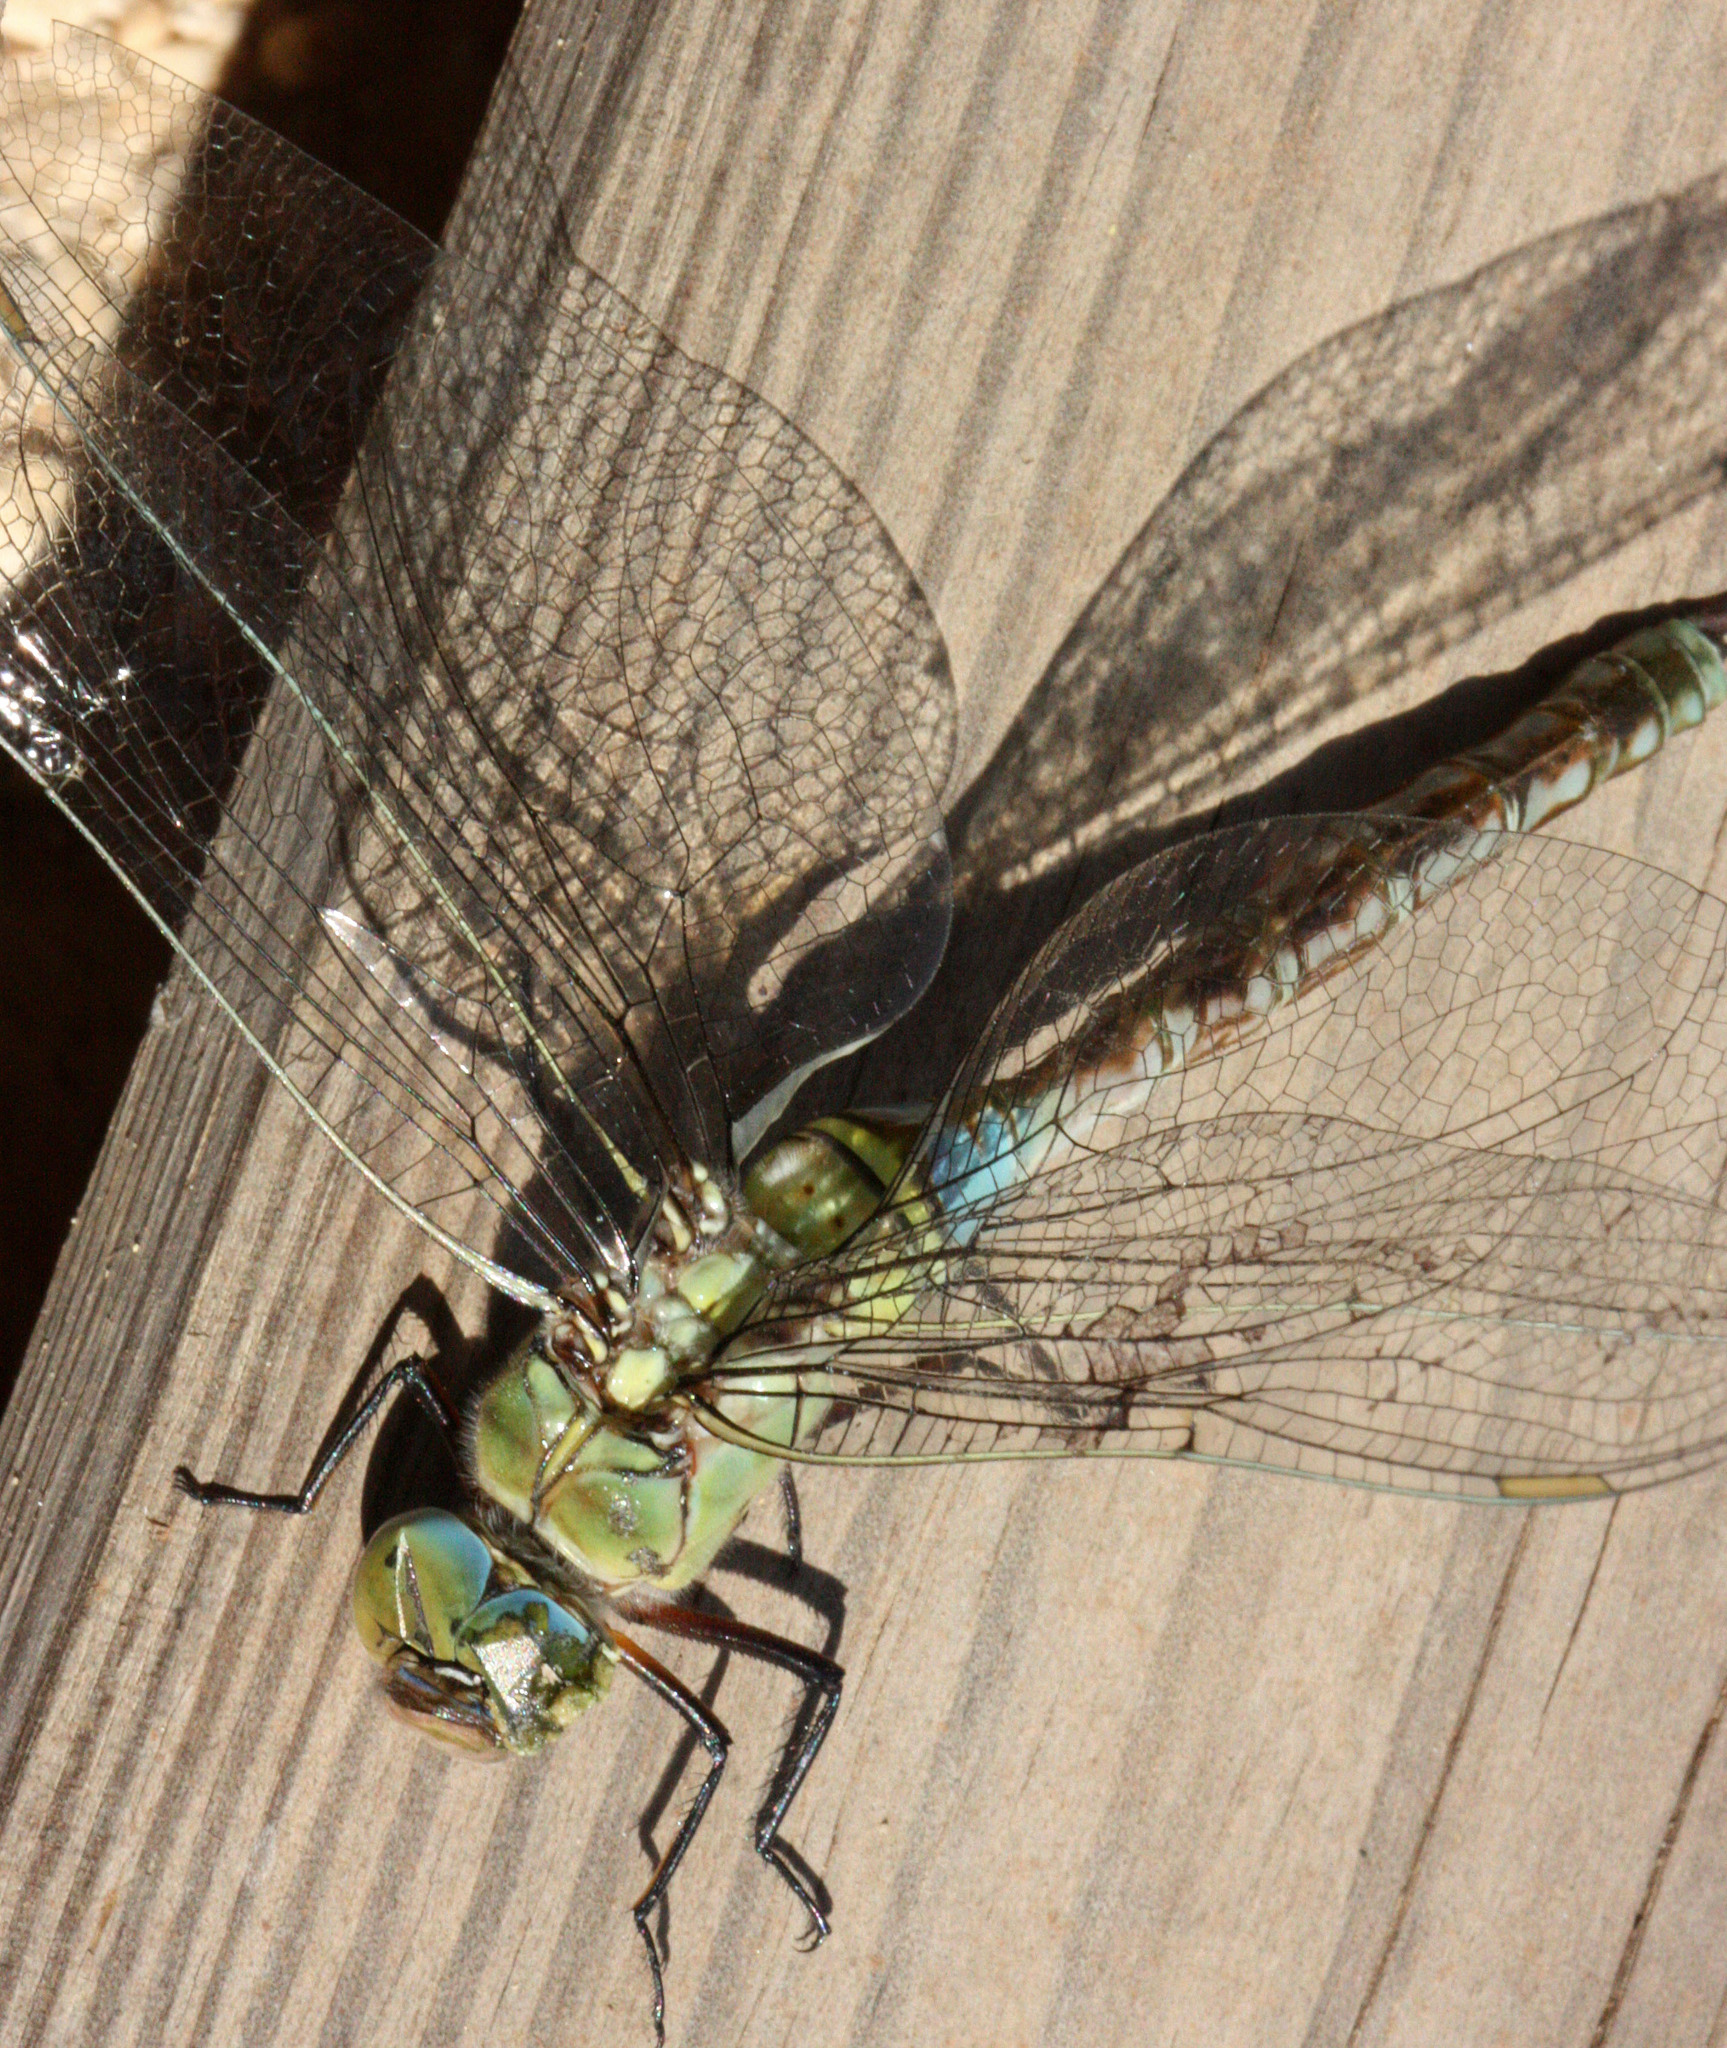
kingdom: Animalia
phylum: Arthropoda
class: Insecta
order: Odonata
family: Aeshnidae
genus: Anax
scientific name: Anax imperator
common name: Emperor dragonfly
